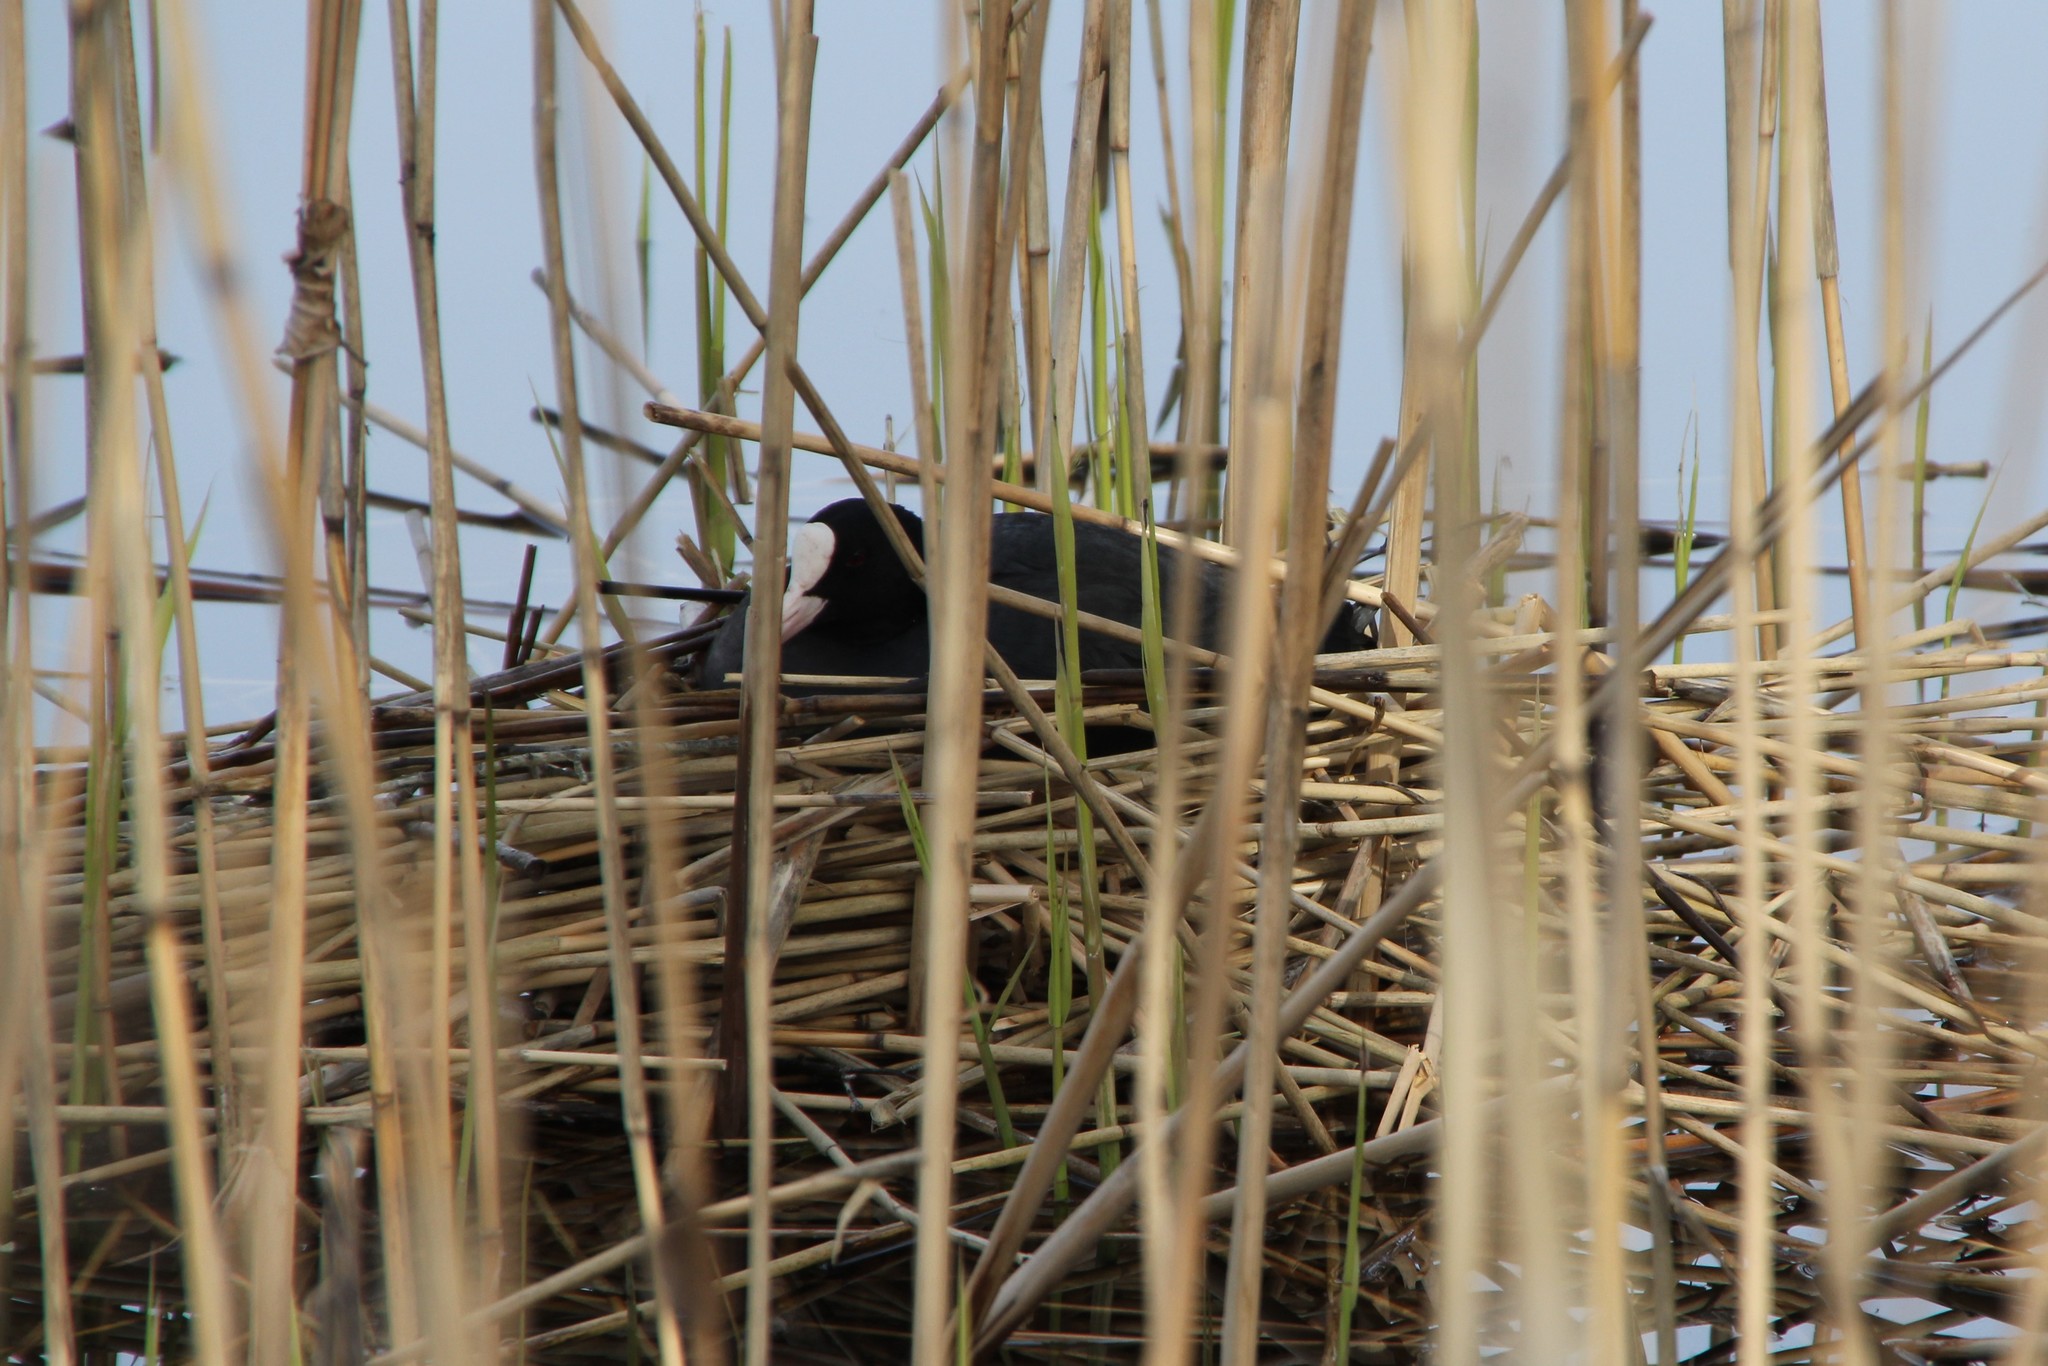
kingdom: Animalia
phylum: Chordata
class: Aves
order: Gruiformes
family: Rallidae
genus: Fulica
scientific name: Fulica atra
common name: Eurasian coot
